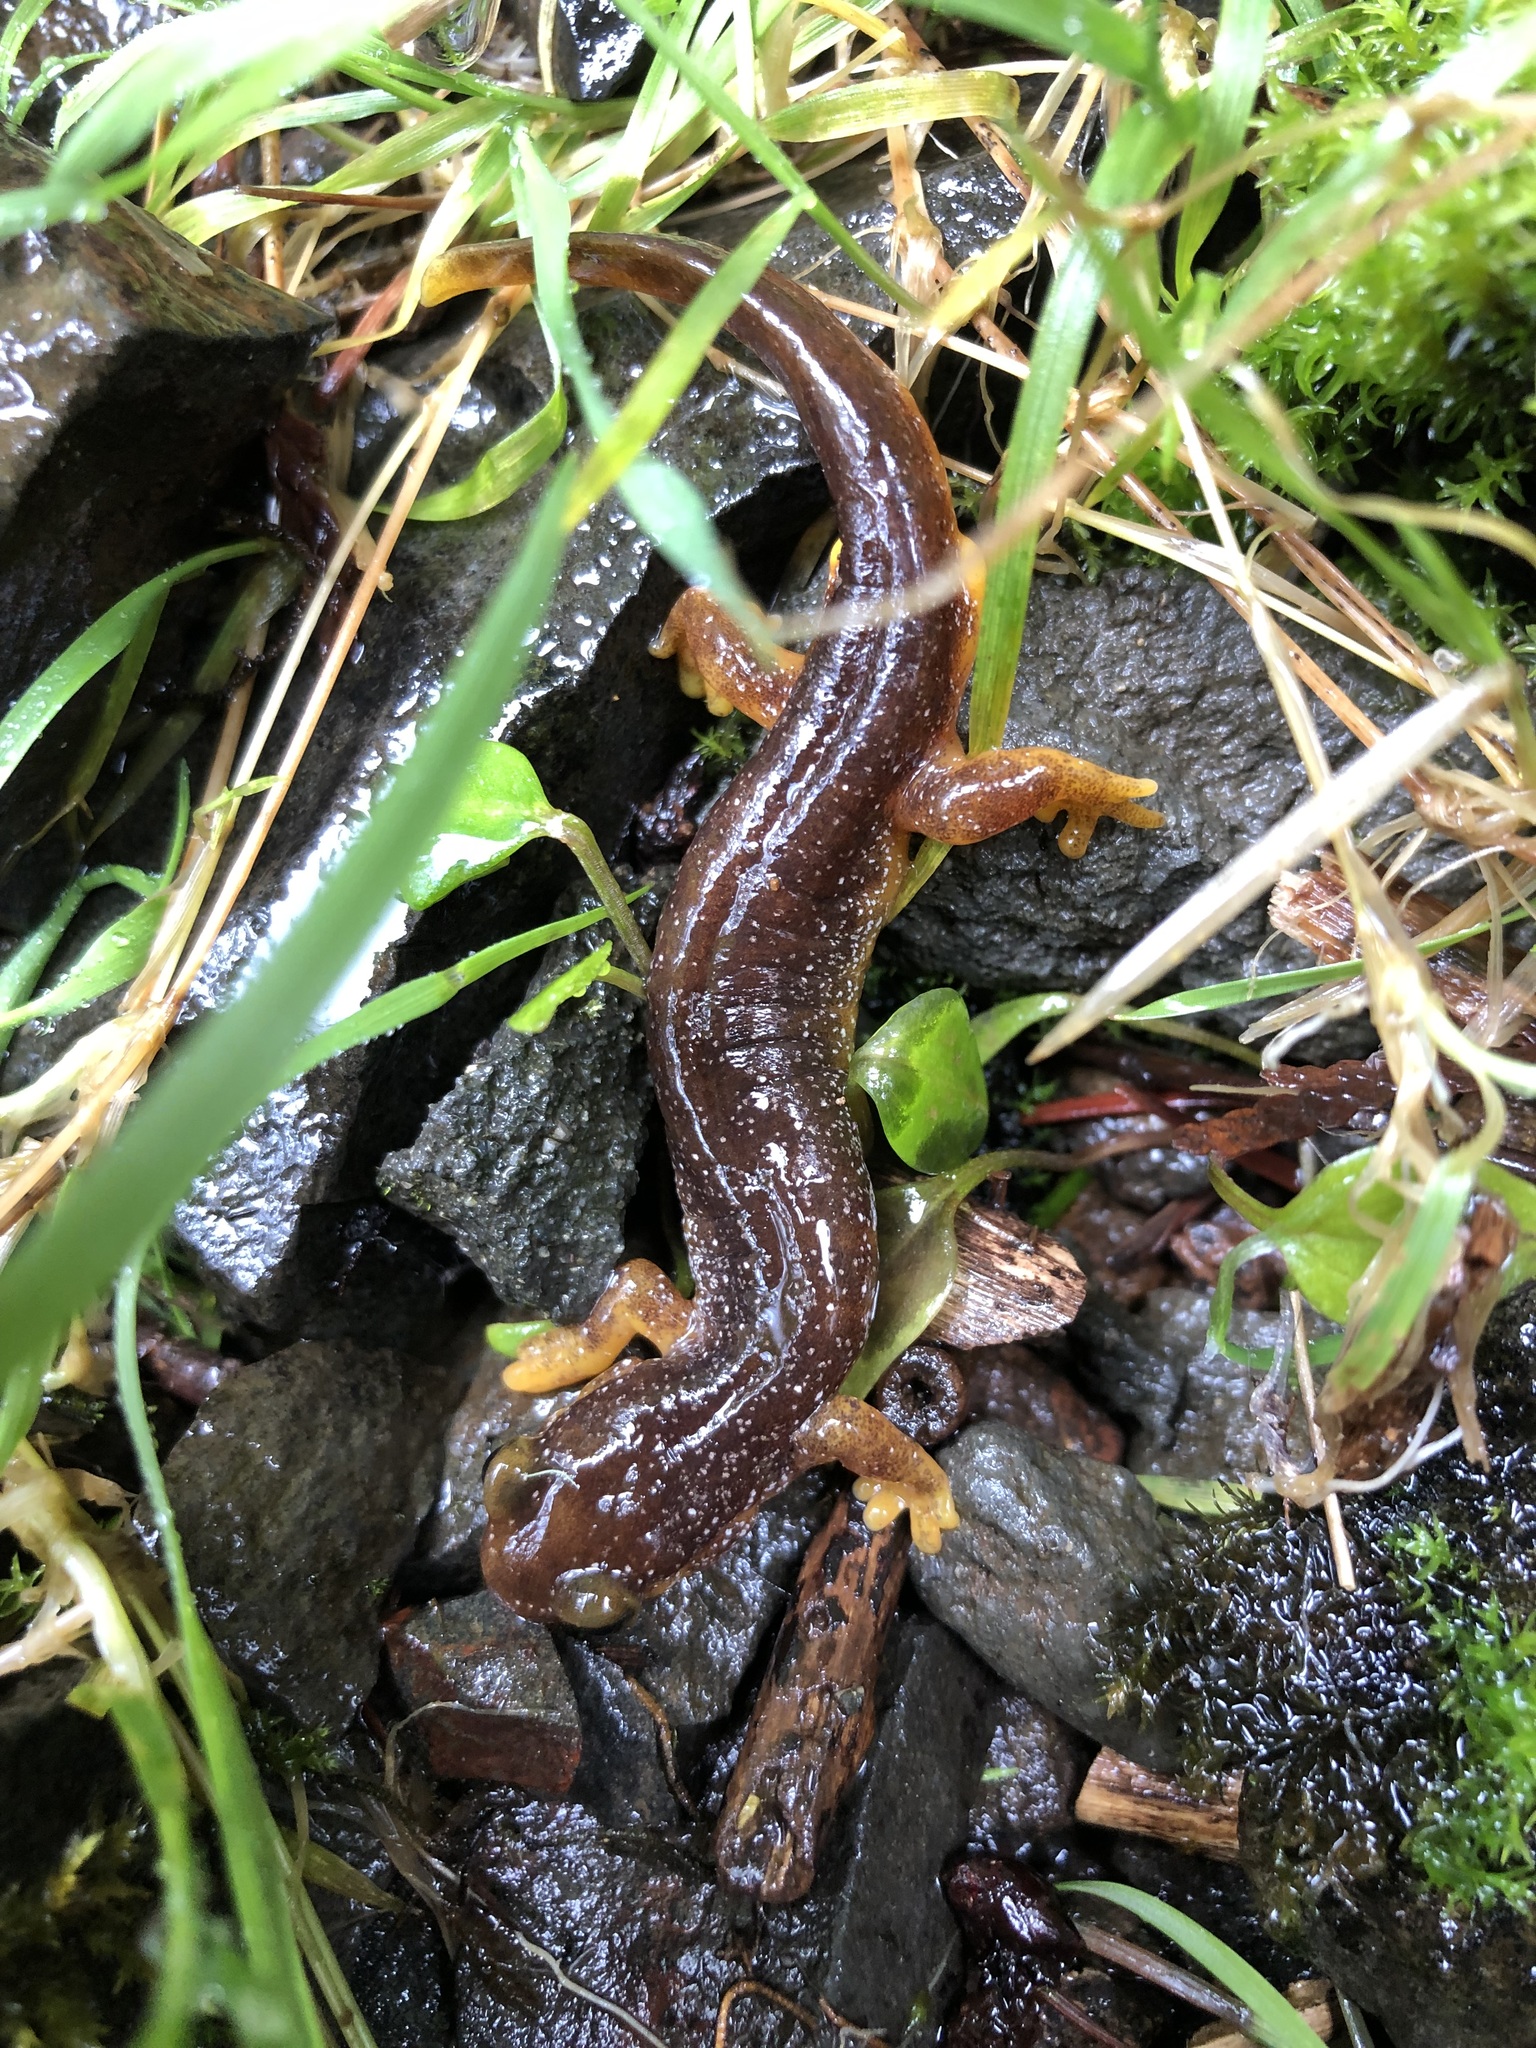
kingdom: Animalia
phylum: Chordata
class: Amphibia
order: Caudata
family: Rhyacotritonidae
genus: Rhyacotriton
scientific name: Rhyacotriton kezeri
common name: Columbia torrent salamander
